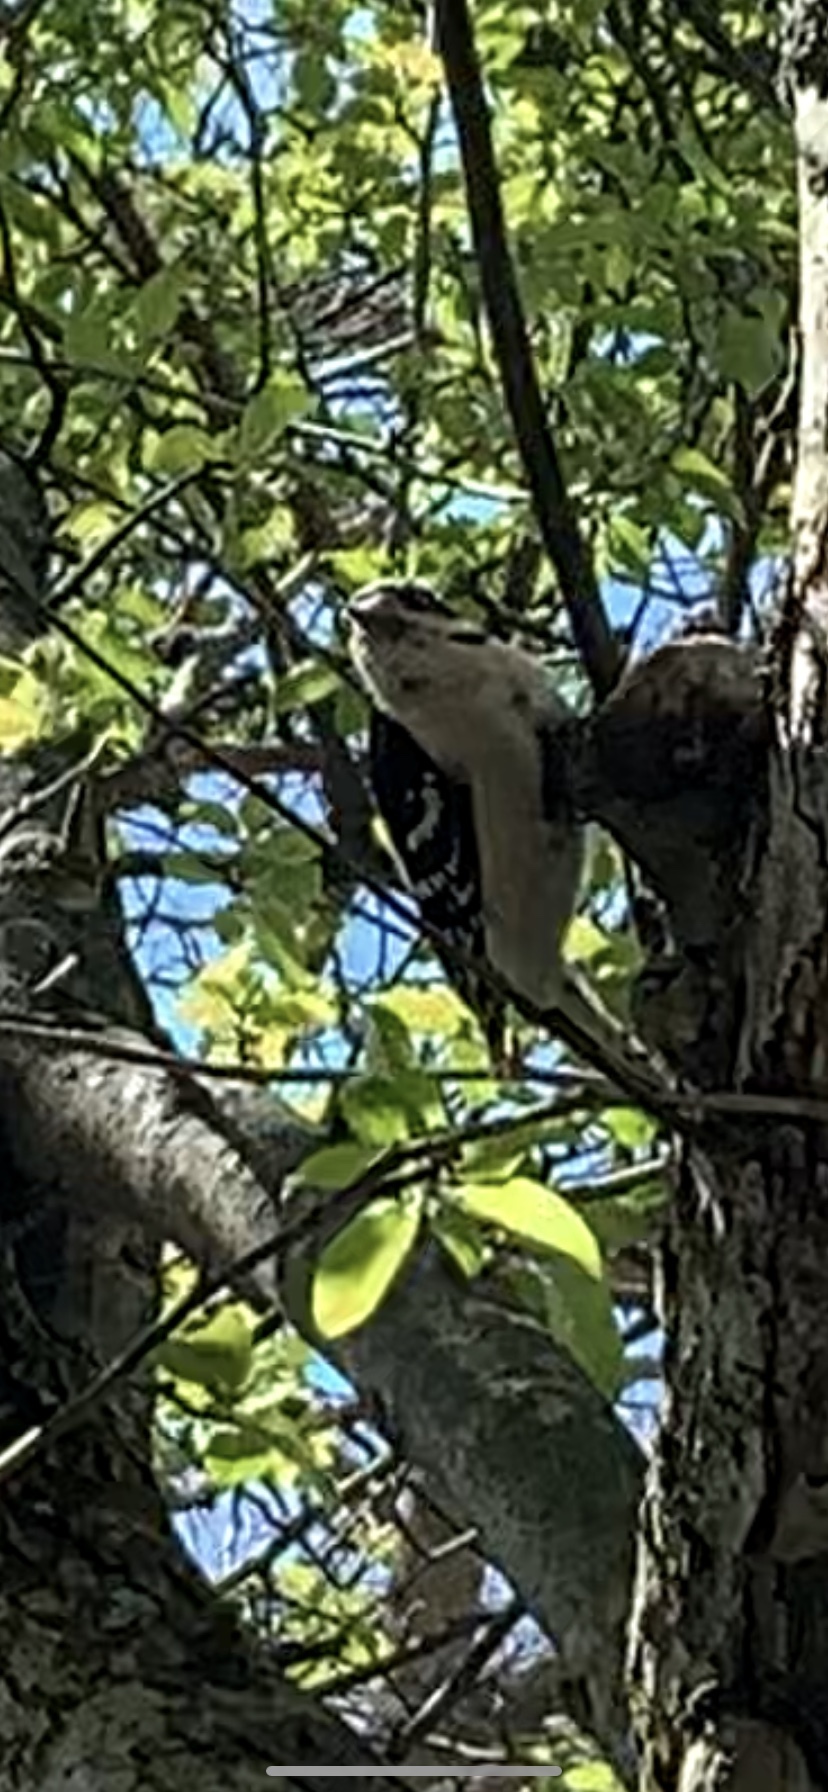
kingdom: Animalia
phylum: Chordata
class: Aves
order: Piciformes
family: Picidae
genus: Dryobates
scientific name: Dryobates pubescens
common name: Downy woodpecker
